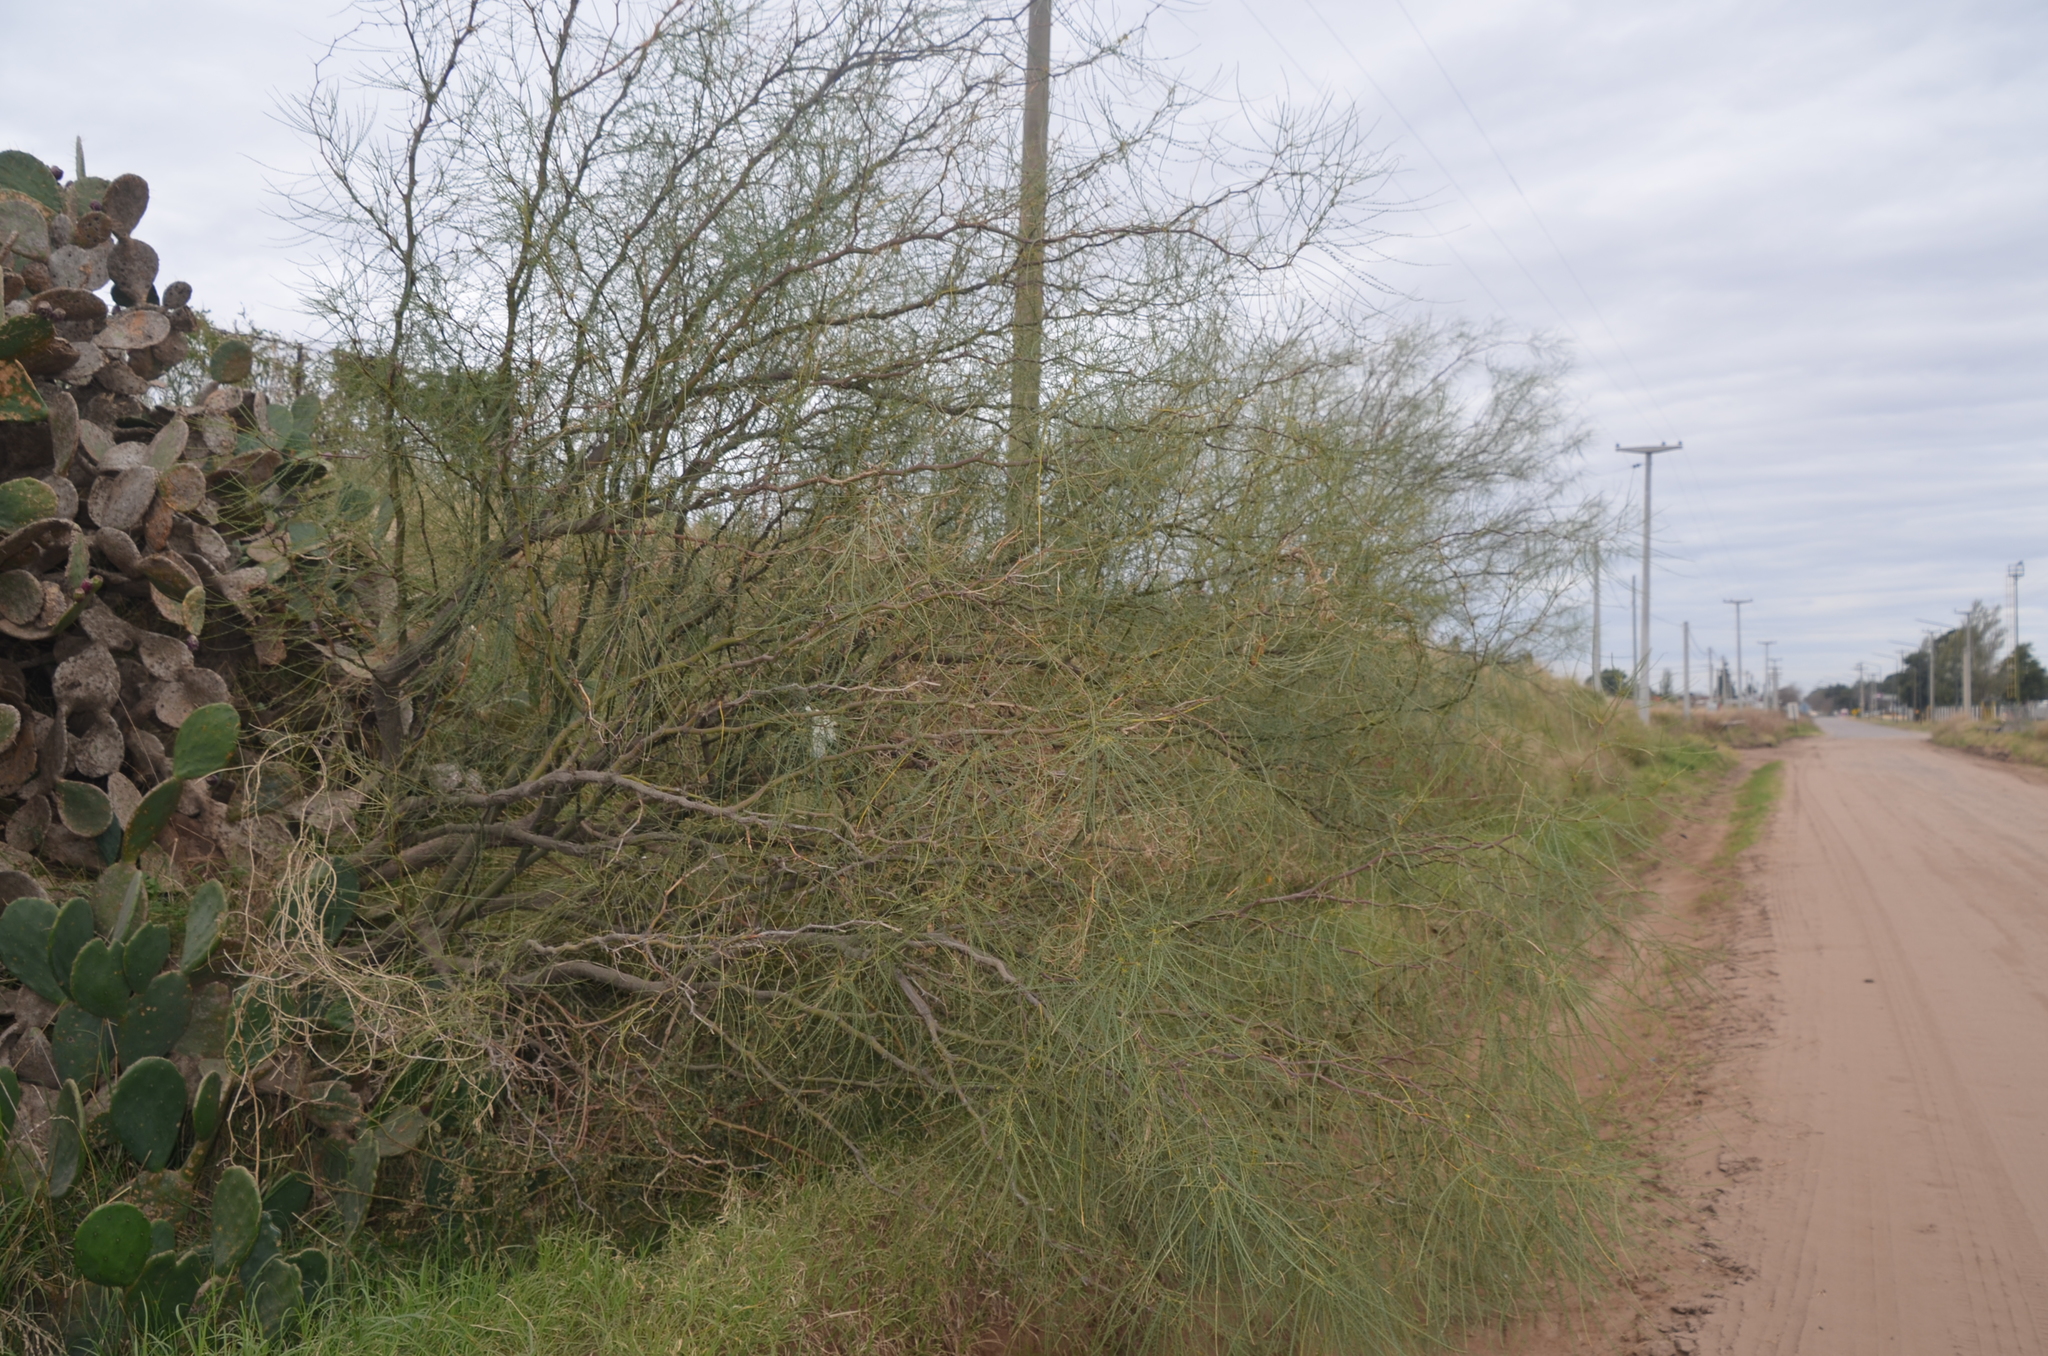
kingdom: Plantae
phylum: Tracheophyta
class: Magnoliopsida
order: Fabales
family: Fabaceae
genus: Parkinsonia
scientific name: Parkinsonia aculeata
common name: Jerusalem thorn
